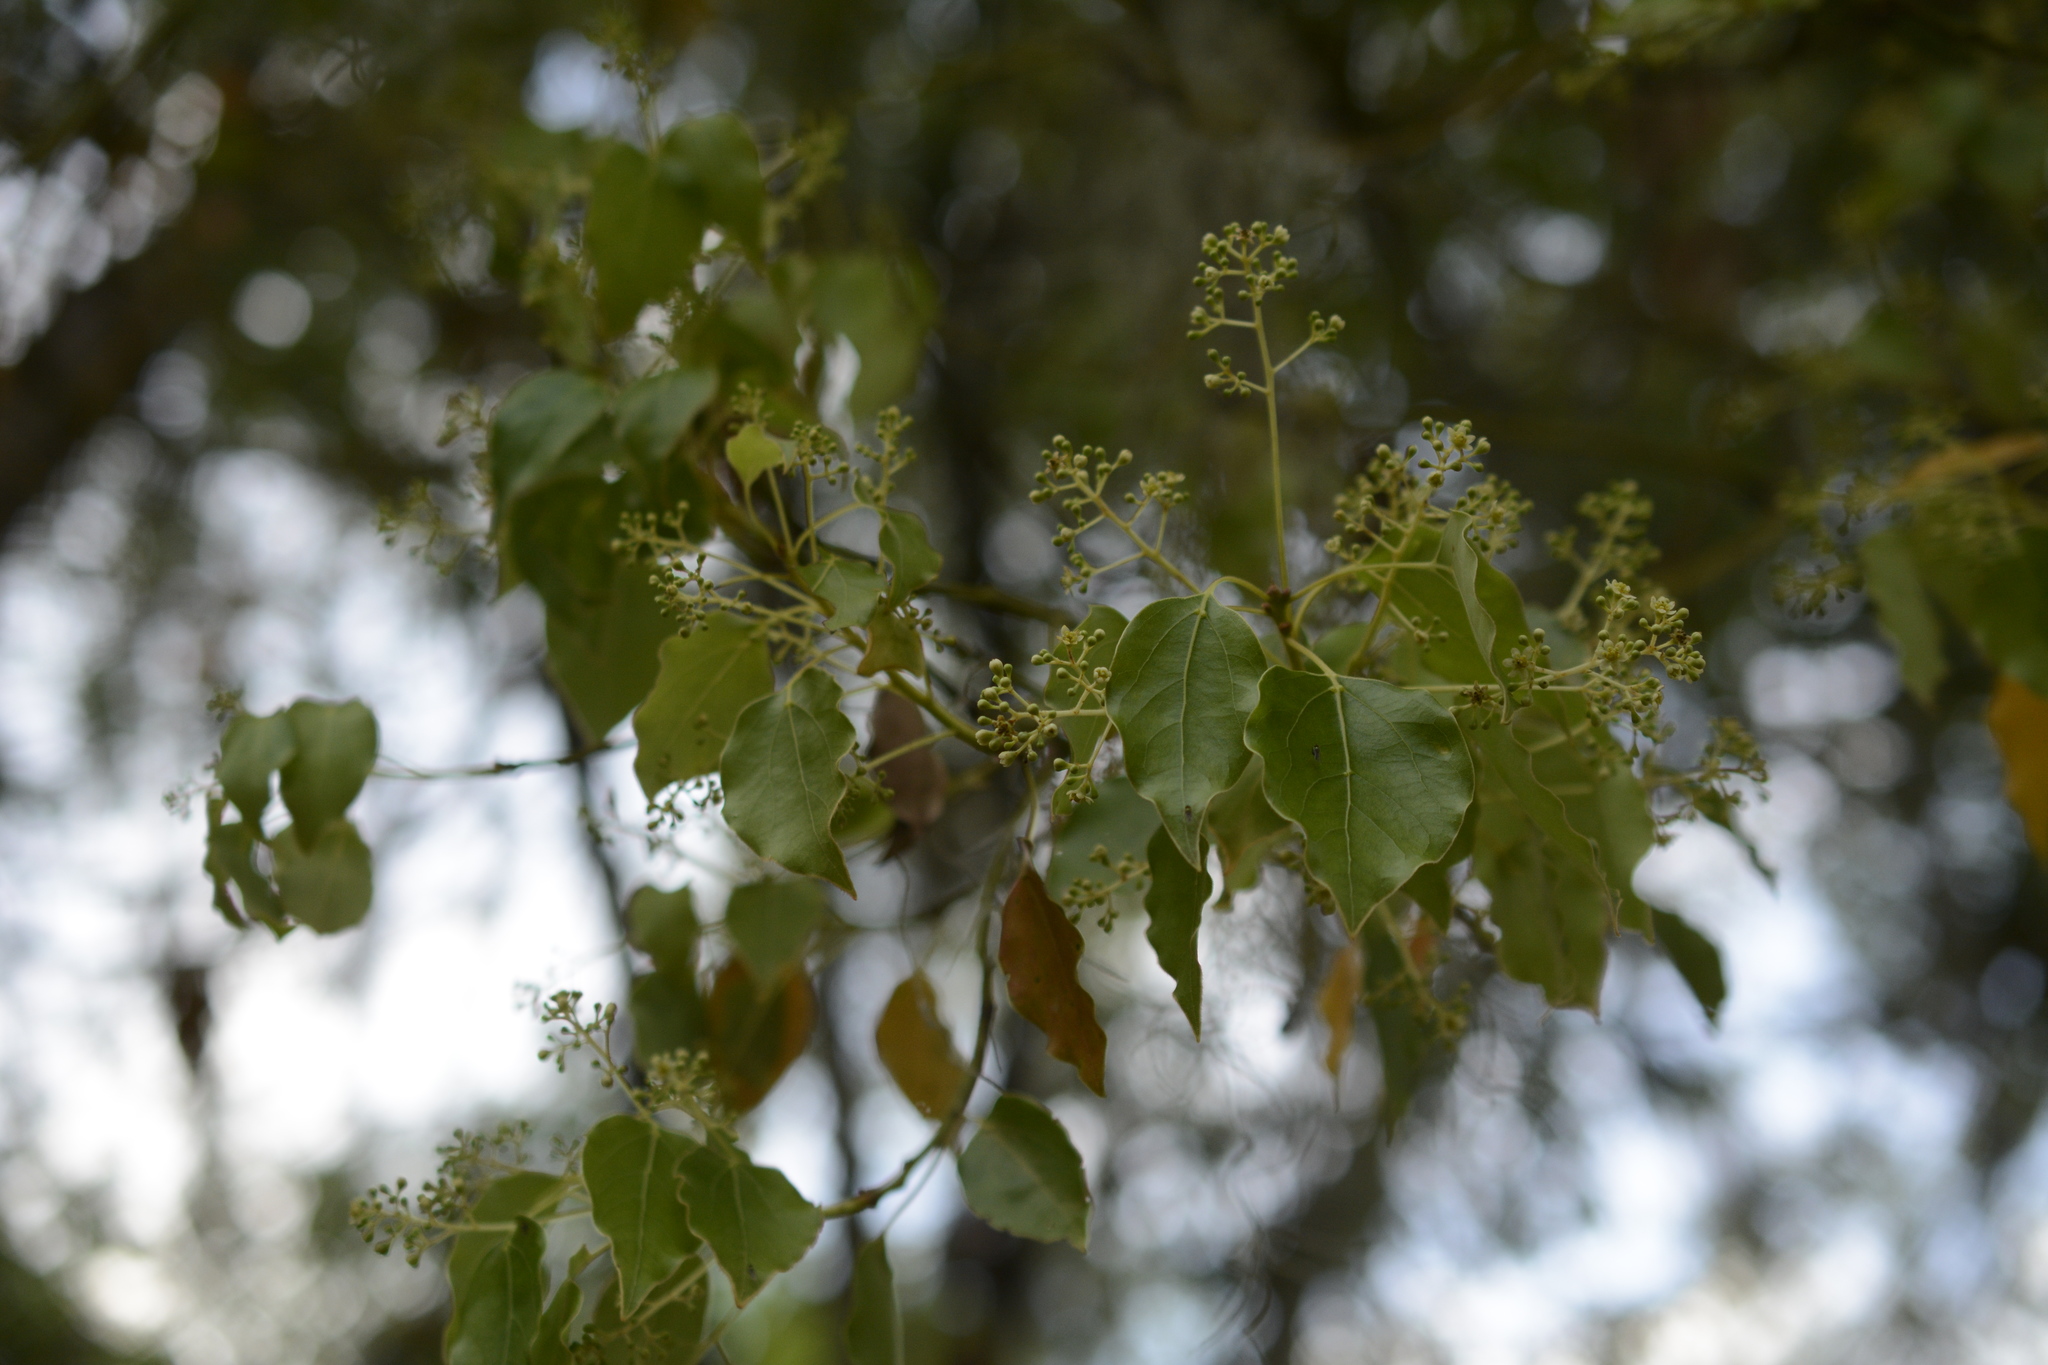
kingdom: Plantae
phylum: Tracheophyta
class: Magnoliopsida
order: Laurales
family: Lauraceae
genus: Cinnamomum
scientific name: Cinnamomum camphora
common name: Camphortree
